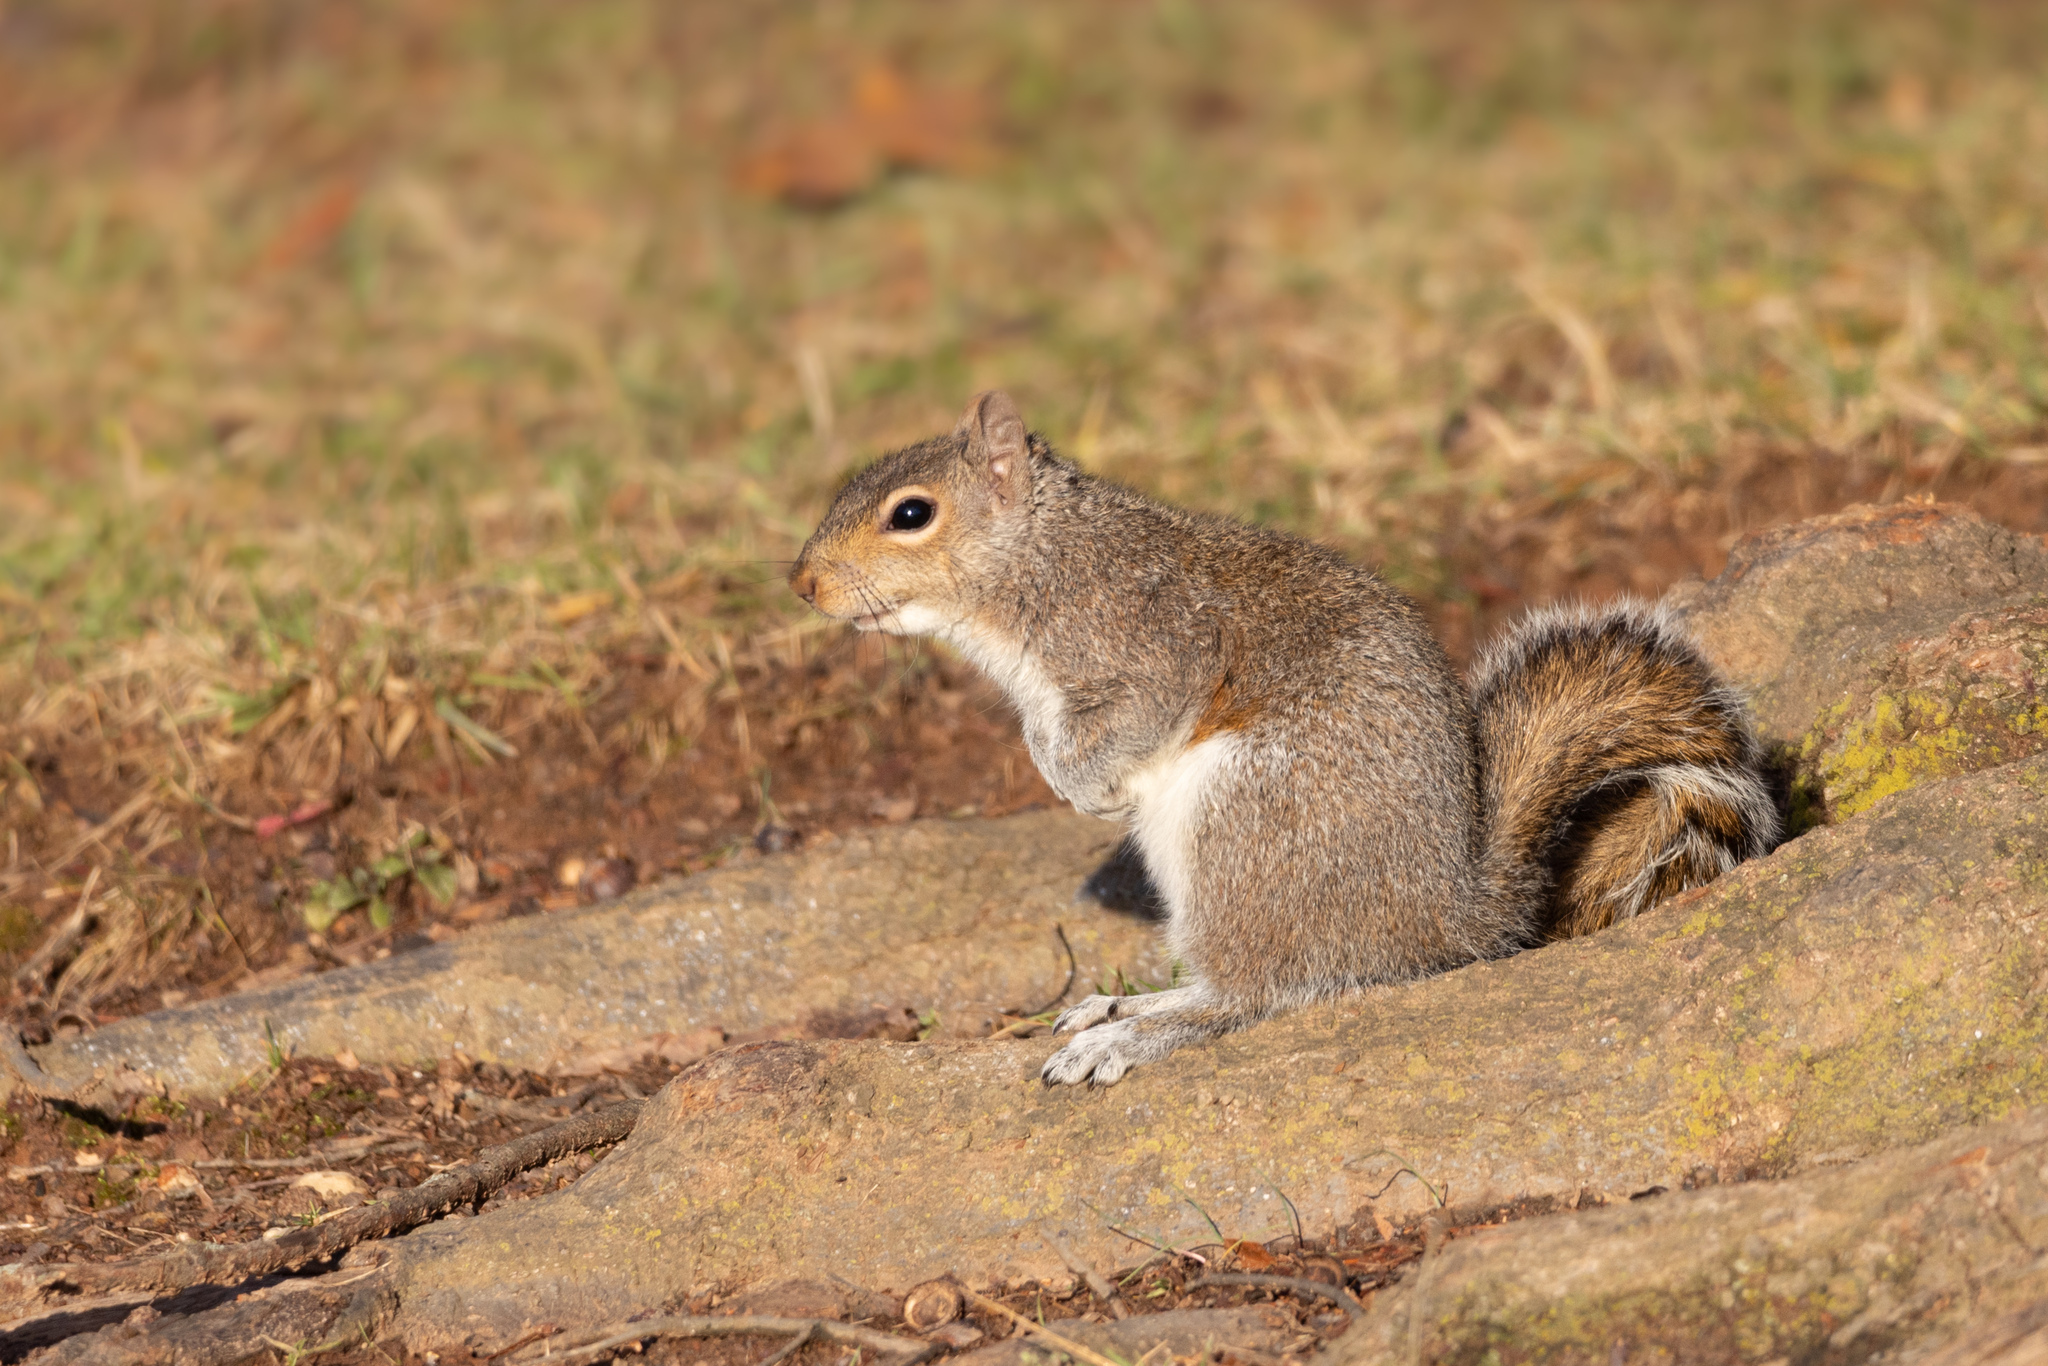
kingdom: Animalia
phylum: Chordata
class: Mammalia
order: Rodentia
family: Sciuridae
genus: Sciurus
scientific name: Sciurus carolinensis
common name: Eastern gray squirrel
